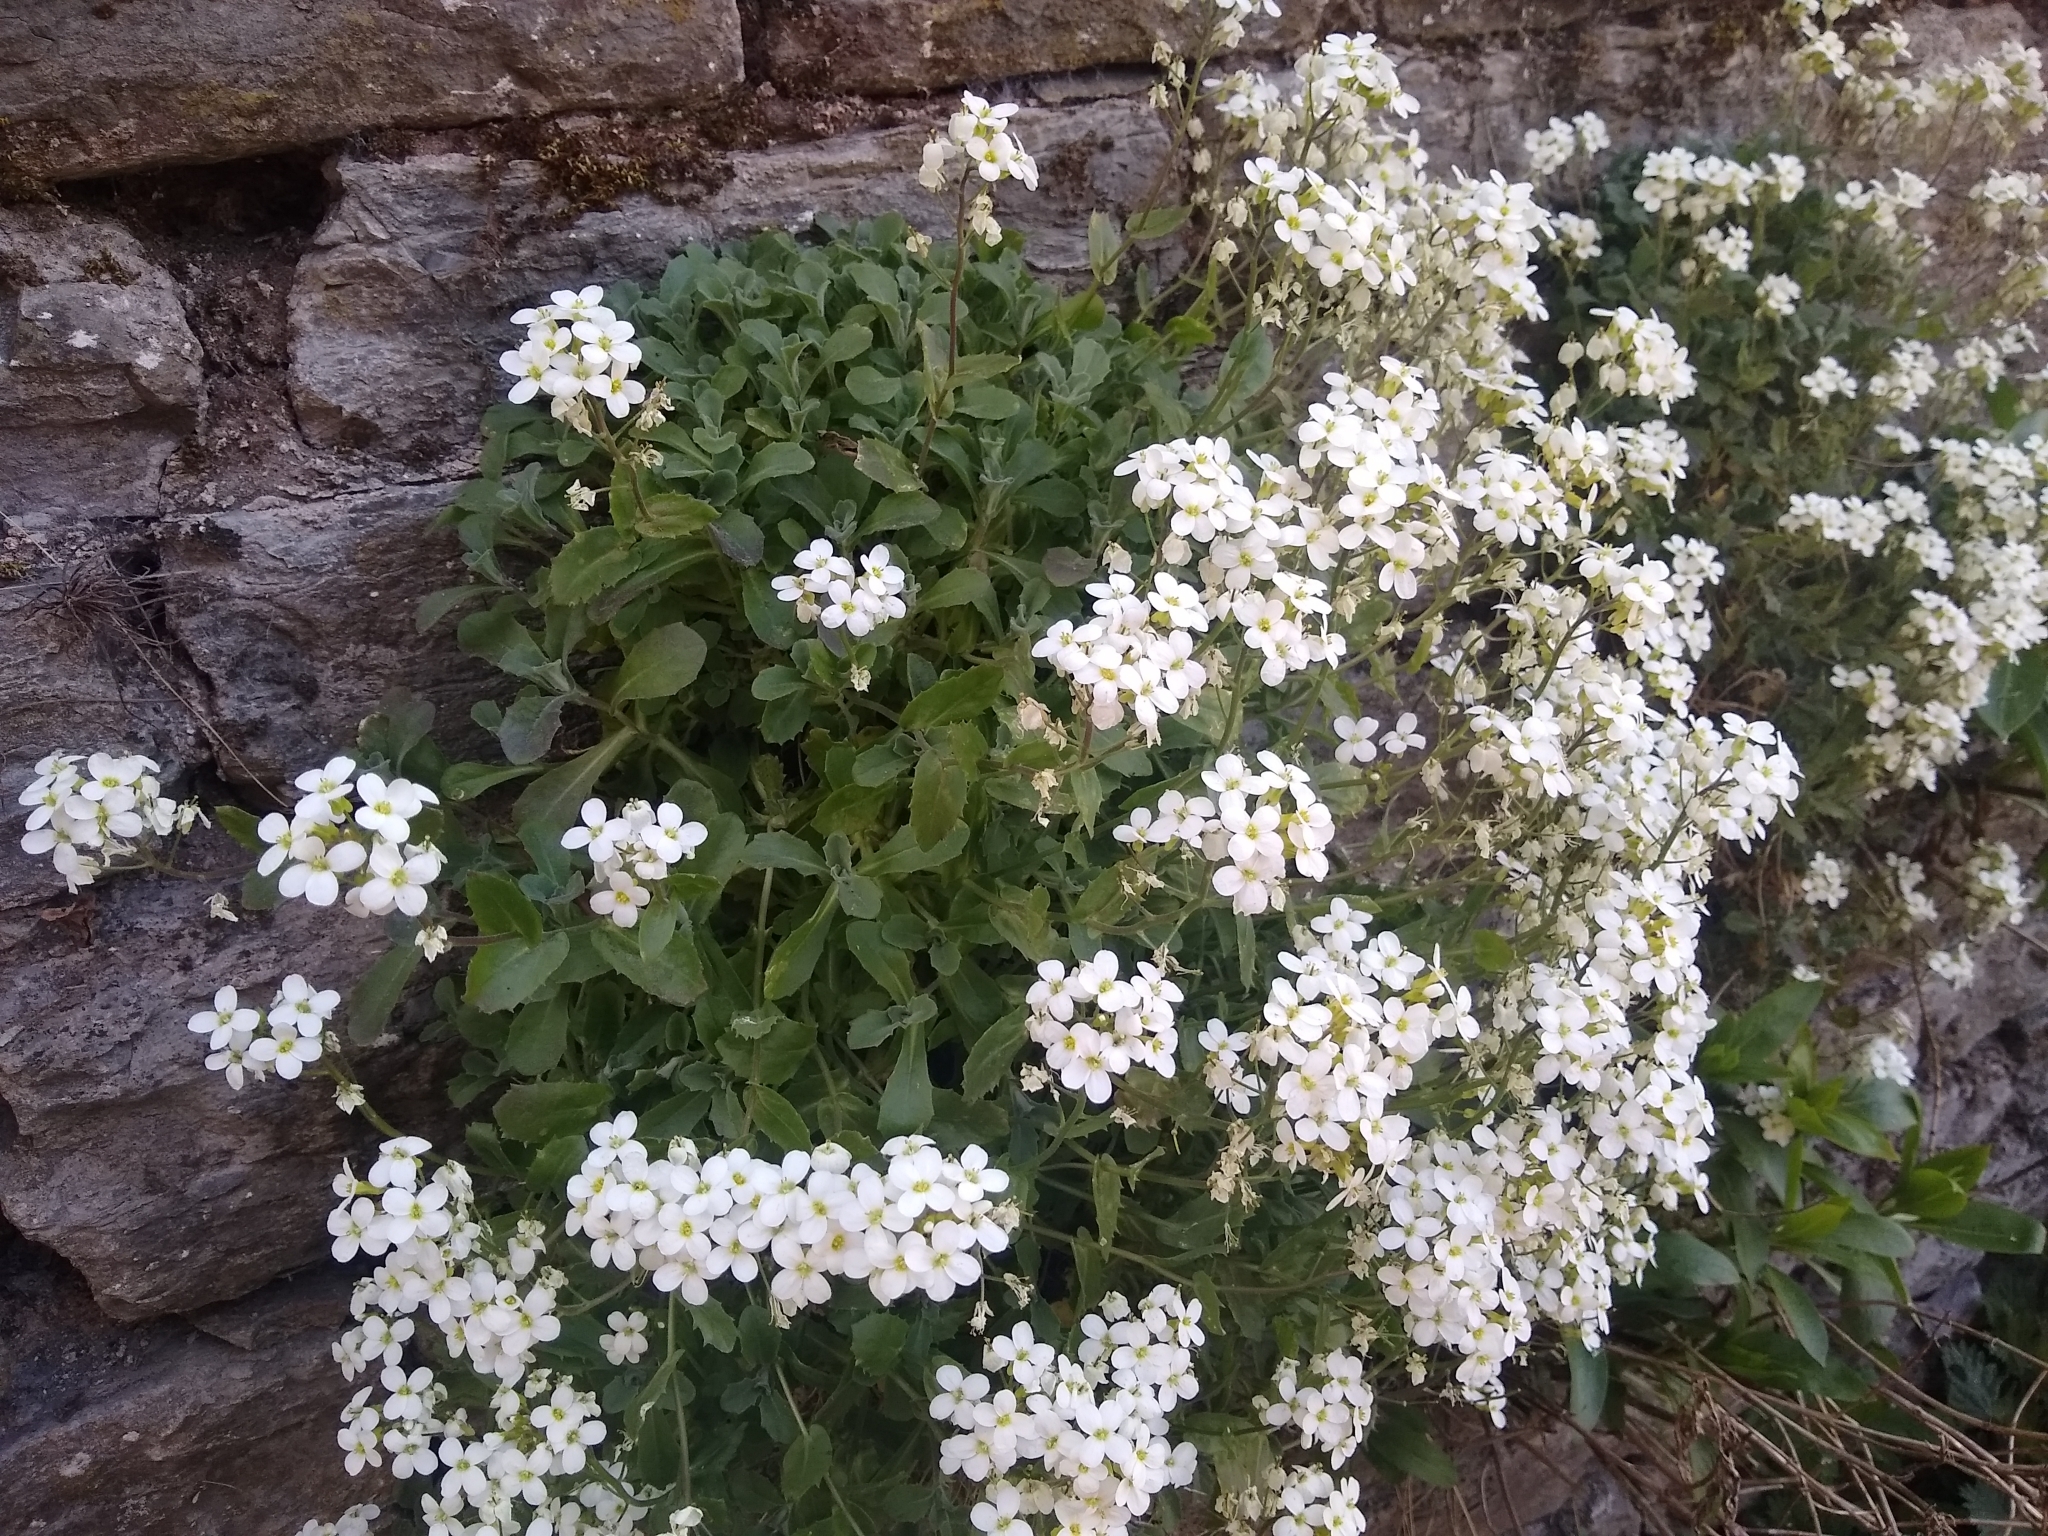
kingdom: Plantae
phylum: Tracheophyta
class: Magnoliopsida
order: Brassicales
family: Brassicaceae
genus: Arabis
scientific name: Arabis caucasica
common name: Gray rockcress
